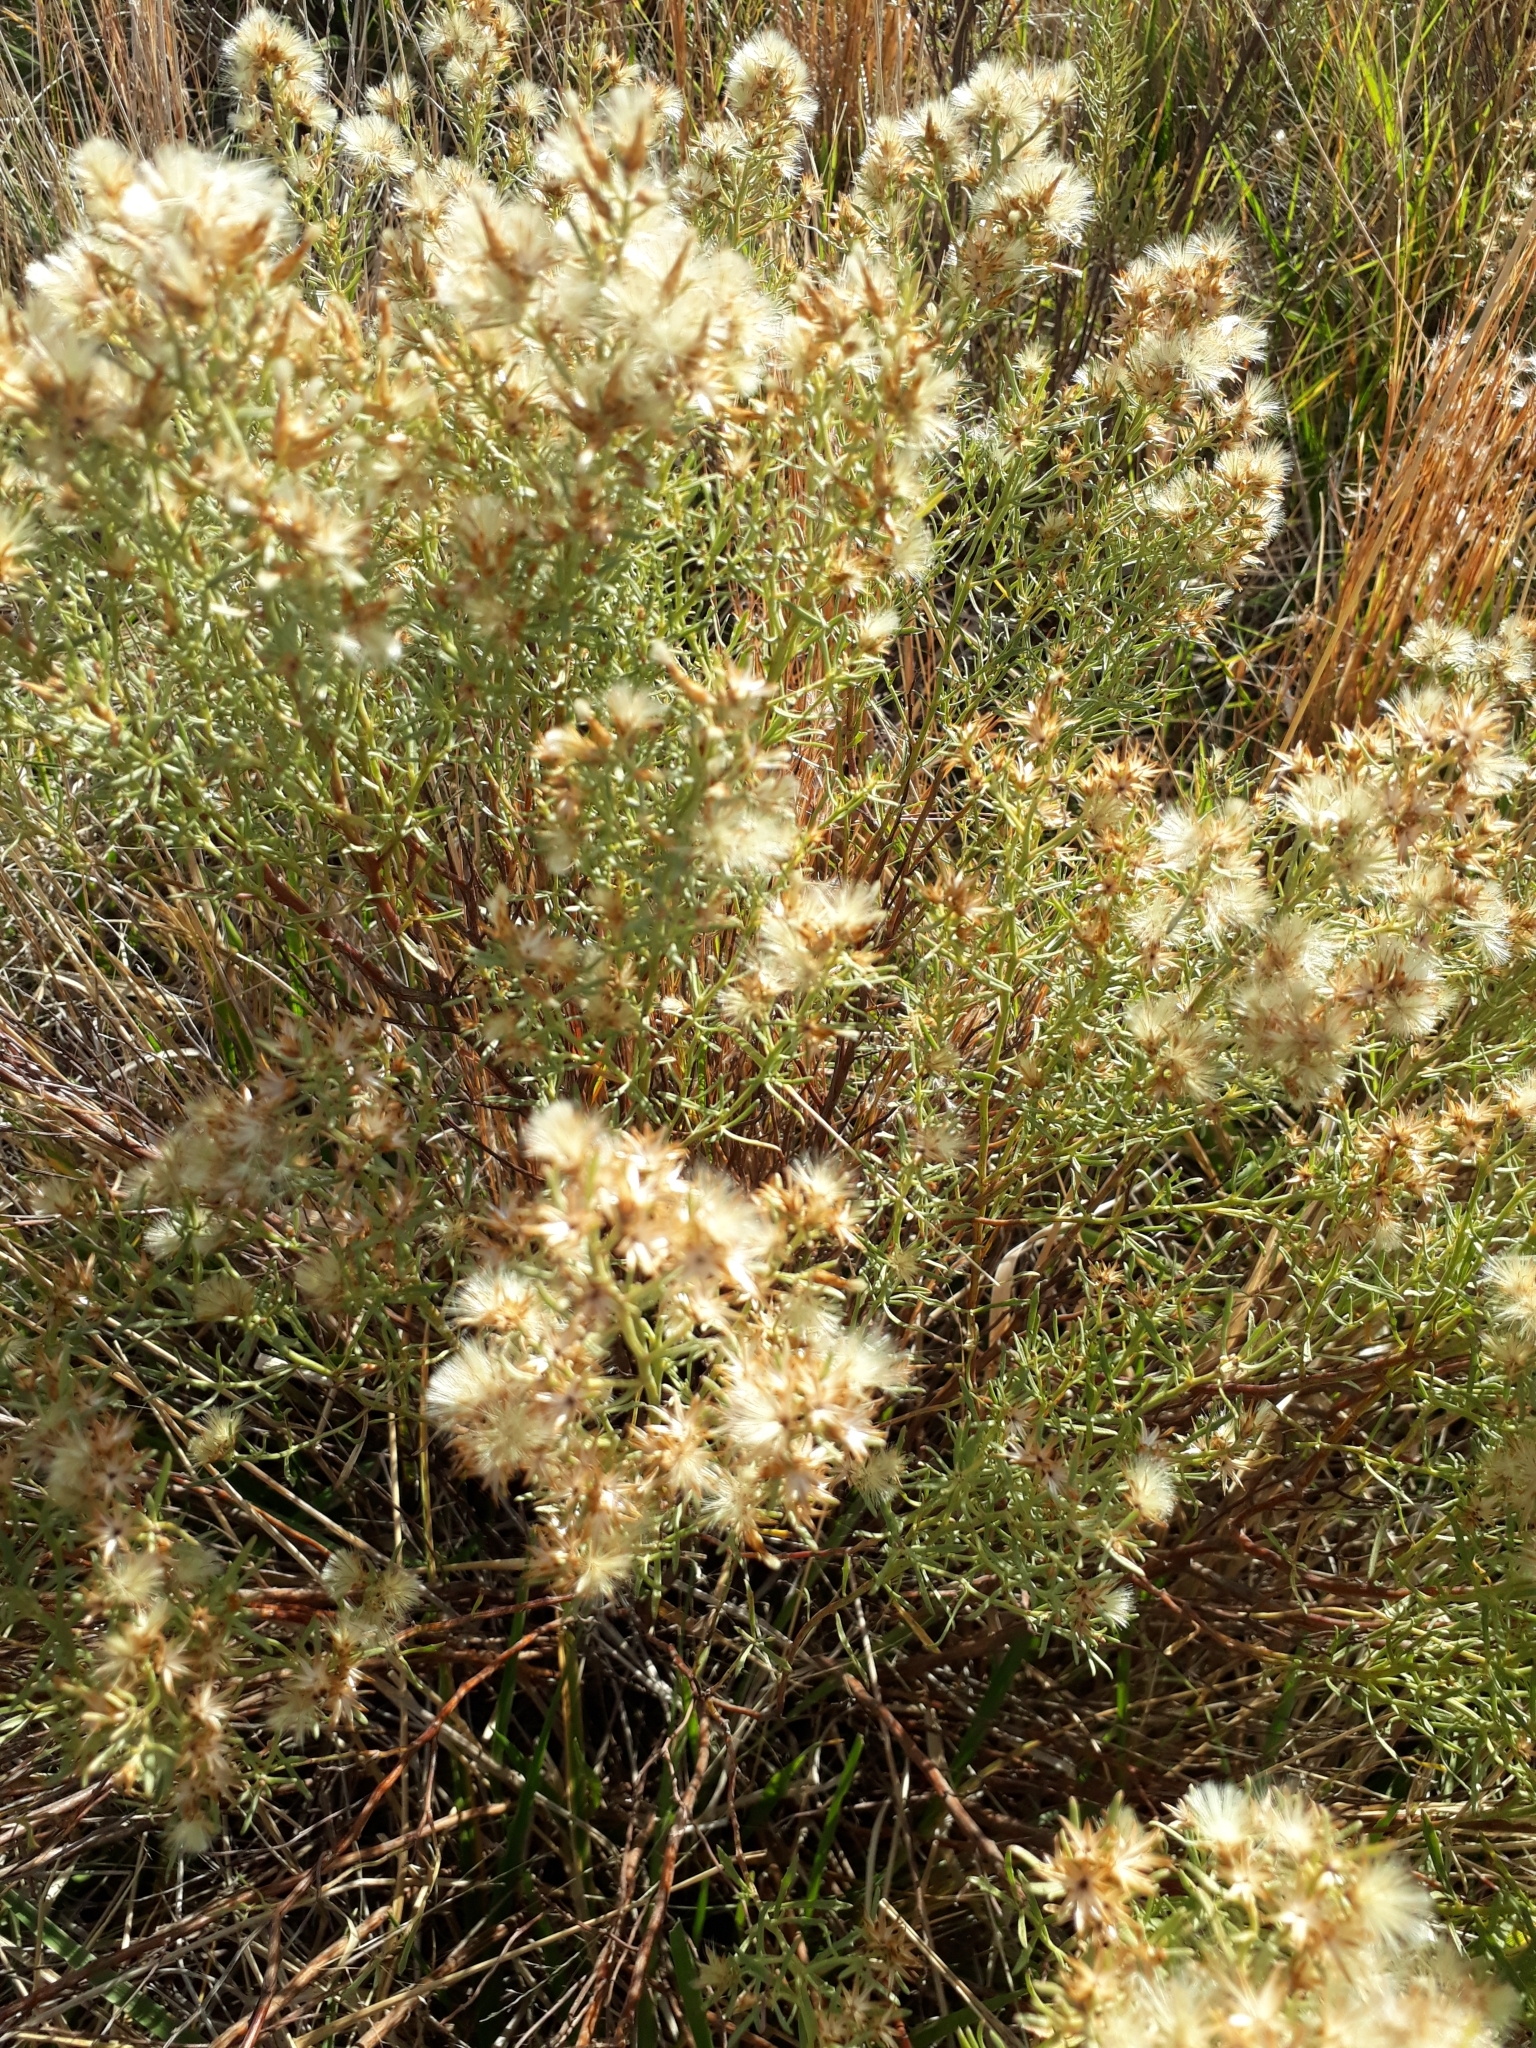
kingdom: Plantae
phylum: Tracheophyta
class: Magnoliopsida
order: Asterales
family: Asteraceae
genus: Baccharis
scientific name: Baccharis coridifolia
